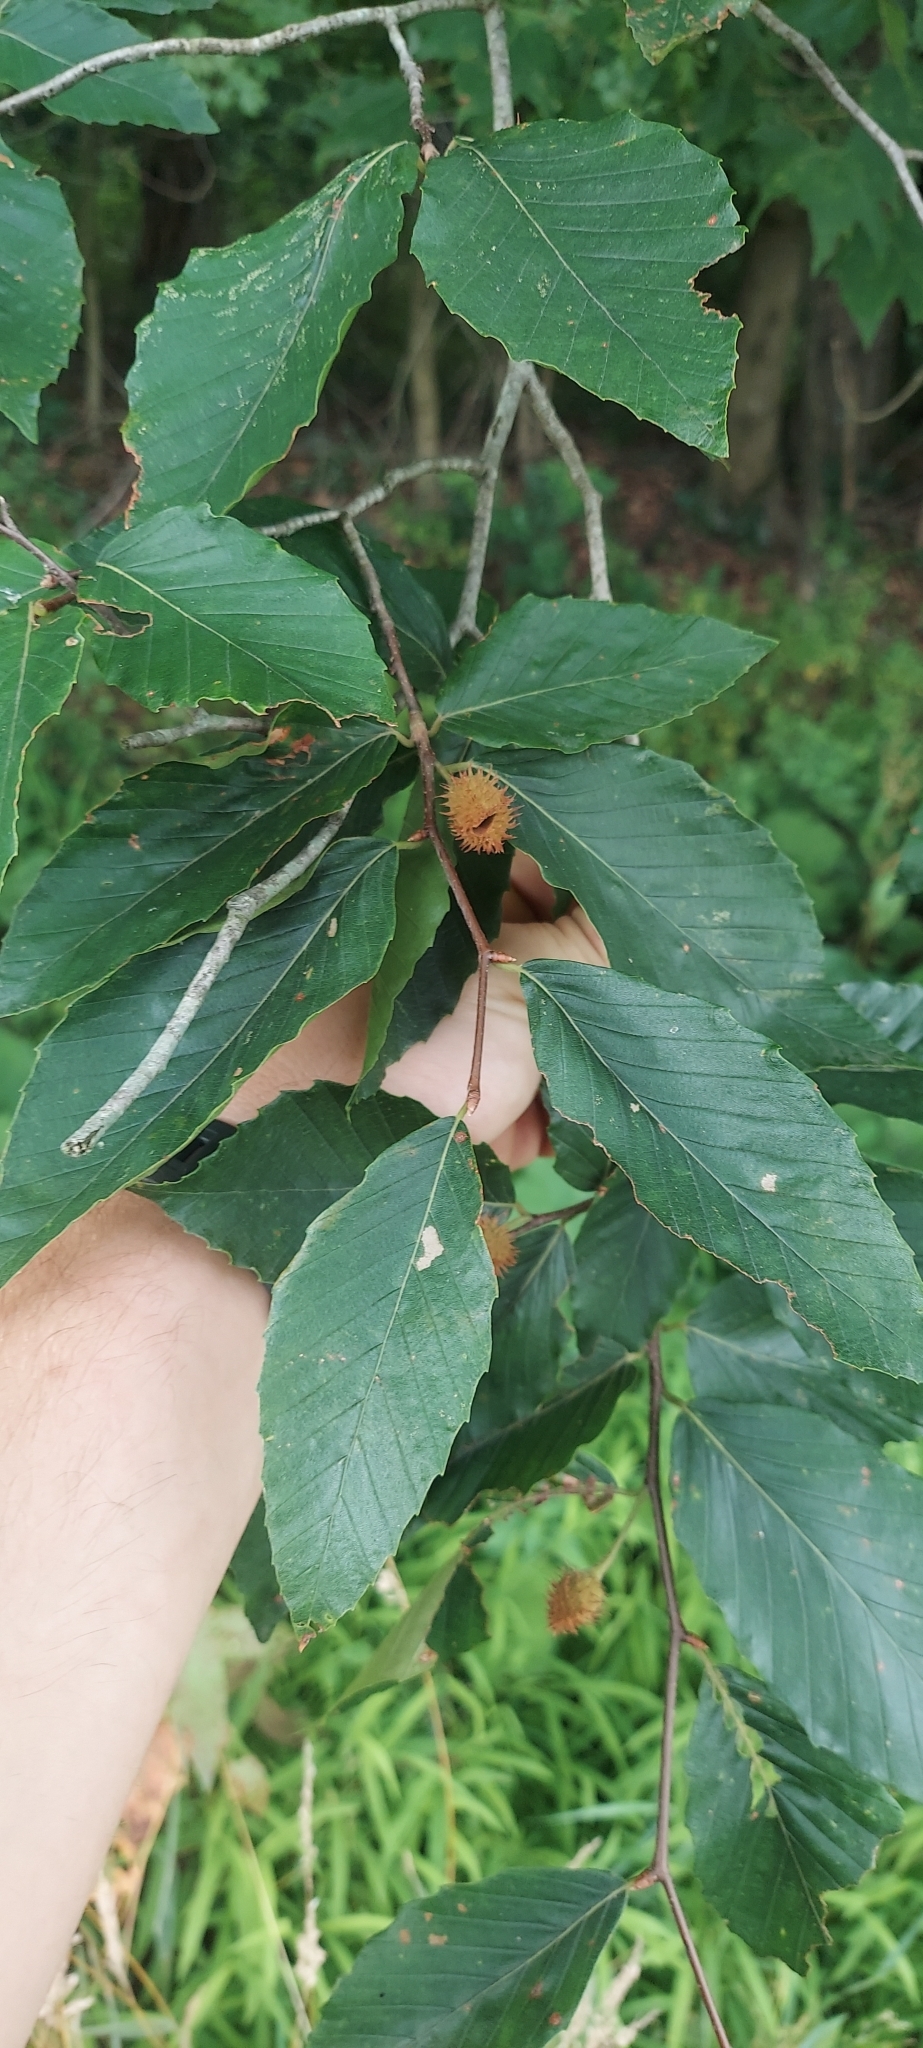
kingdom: Plantae
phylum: Tracheophyta
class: Magnoliopsida
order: Fagales
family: Fagaceae
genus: Fagus
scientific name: Fagus grandifolia
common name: American beech
